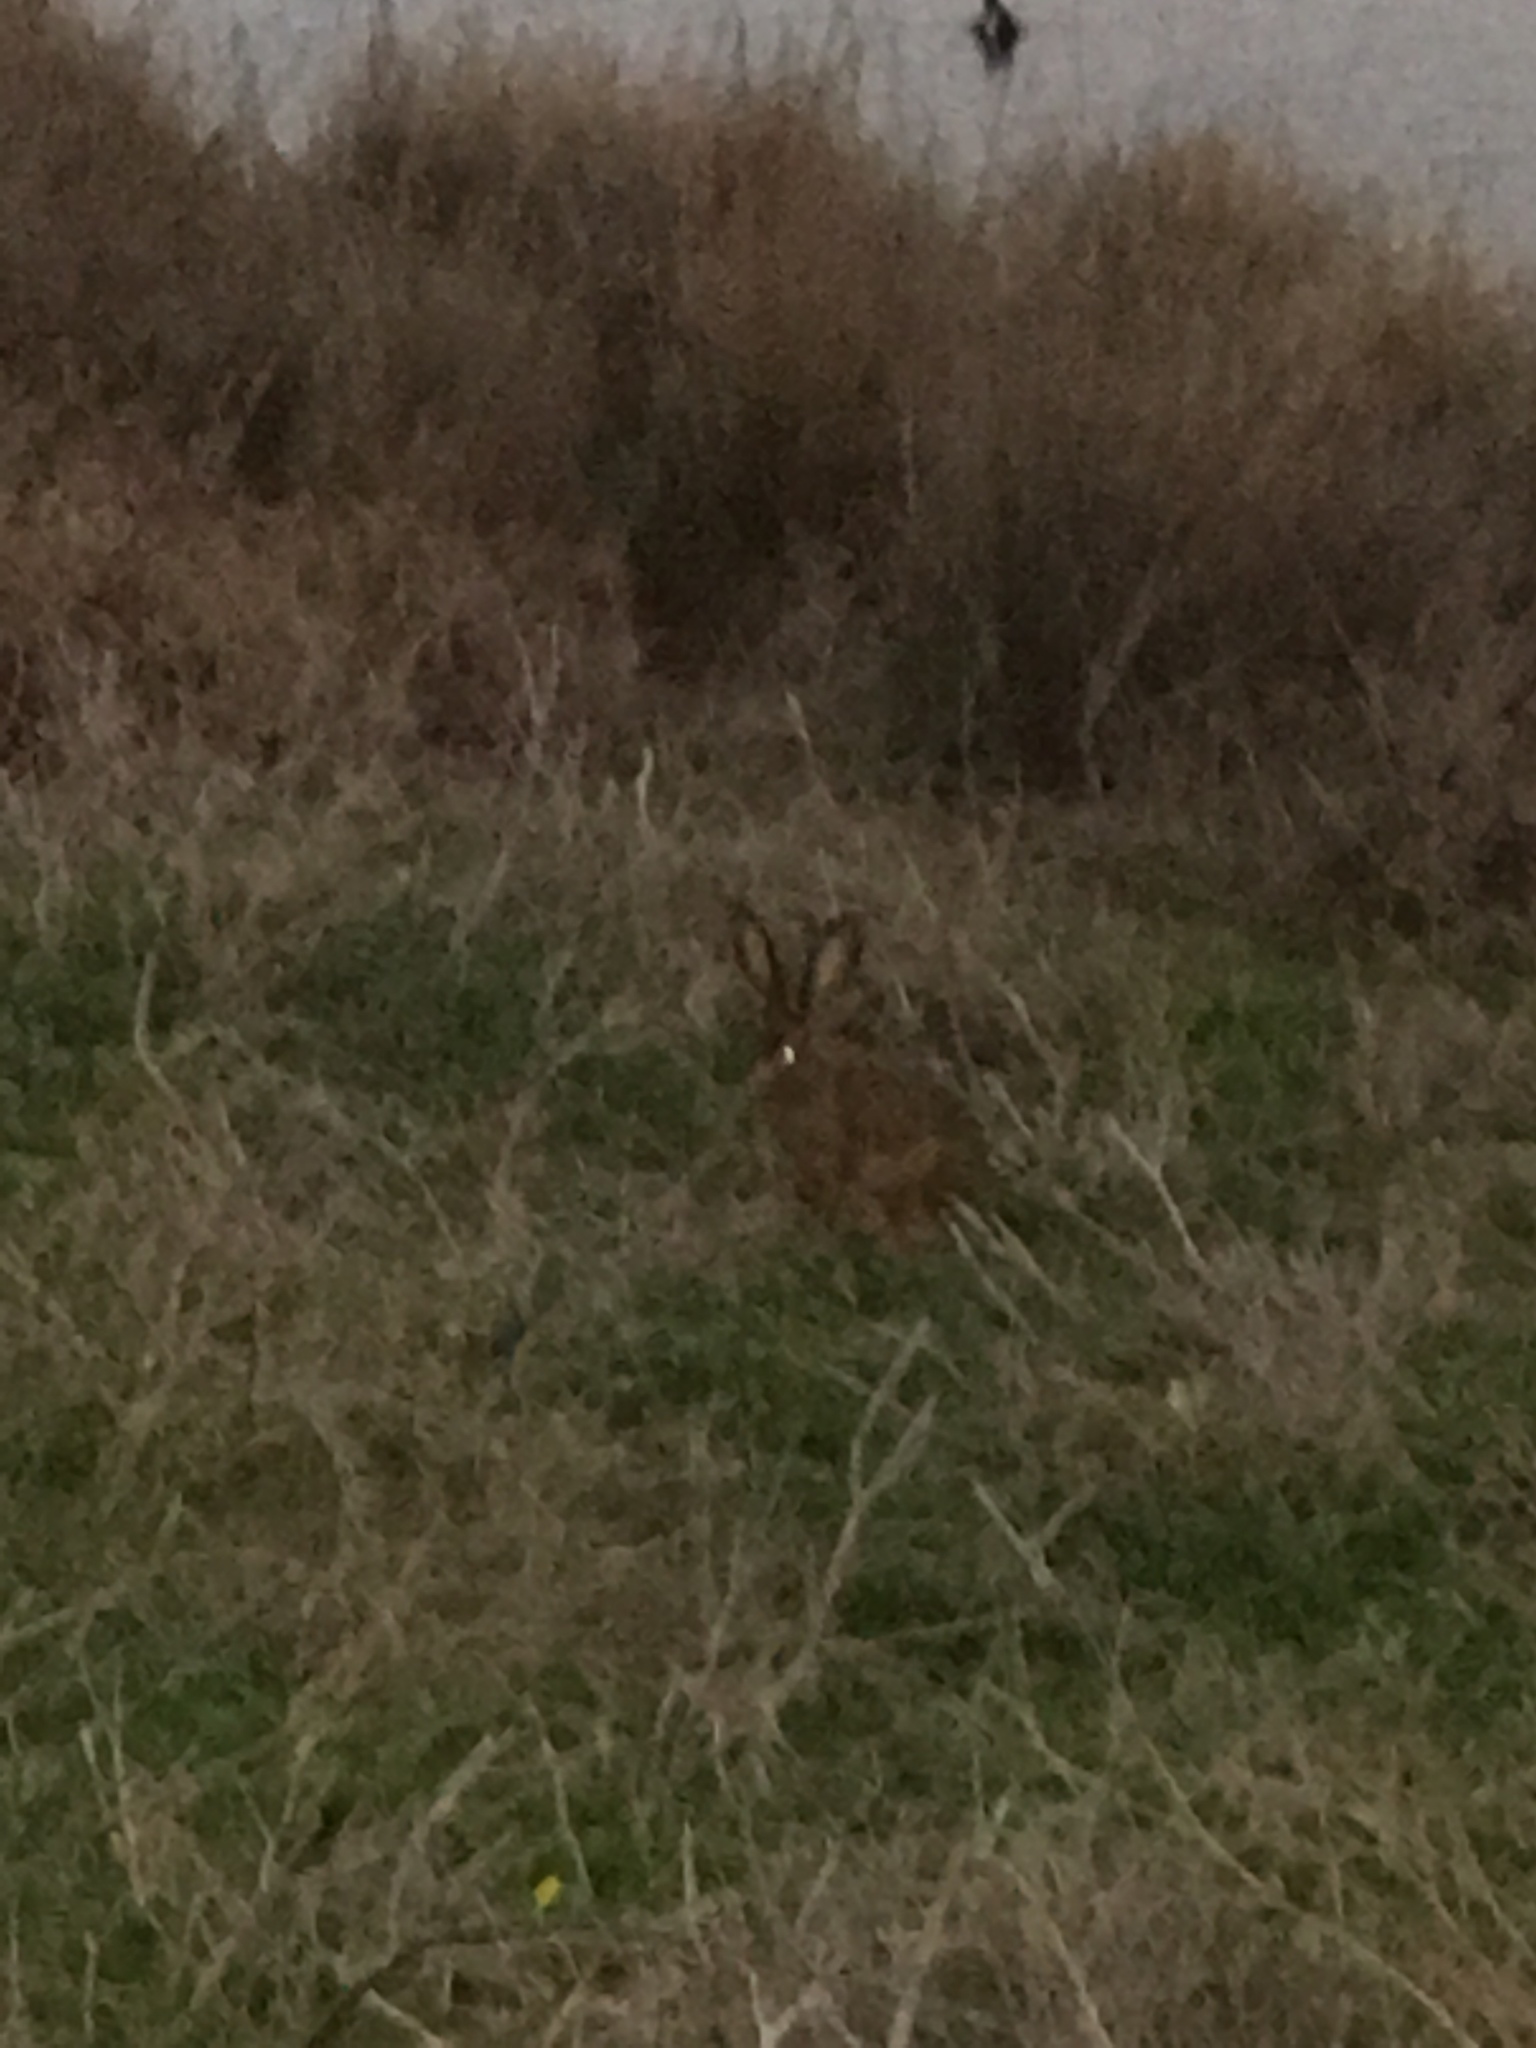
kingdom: Animalia
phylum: Chordata
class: Mammalia
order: Lagomorpha
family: Leporidae
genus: Lepus
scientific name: Lepus californicus
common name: Black-tailed jackrabbit
